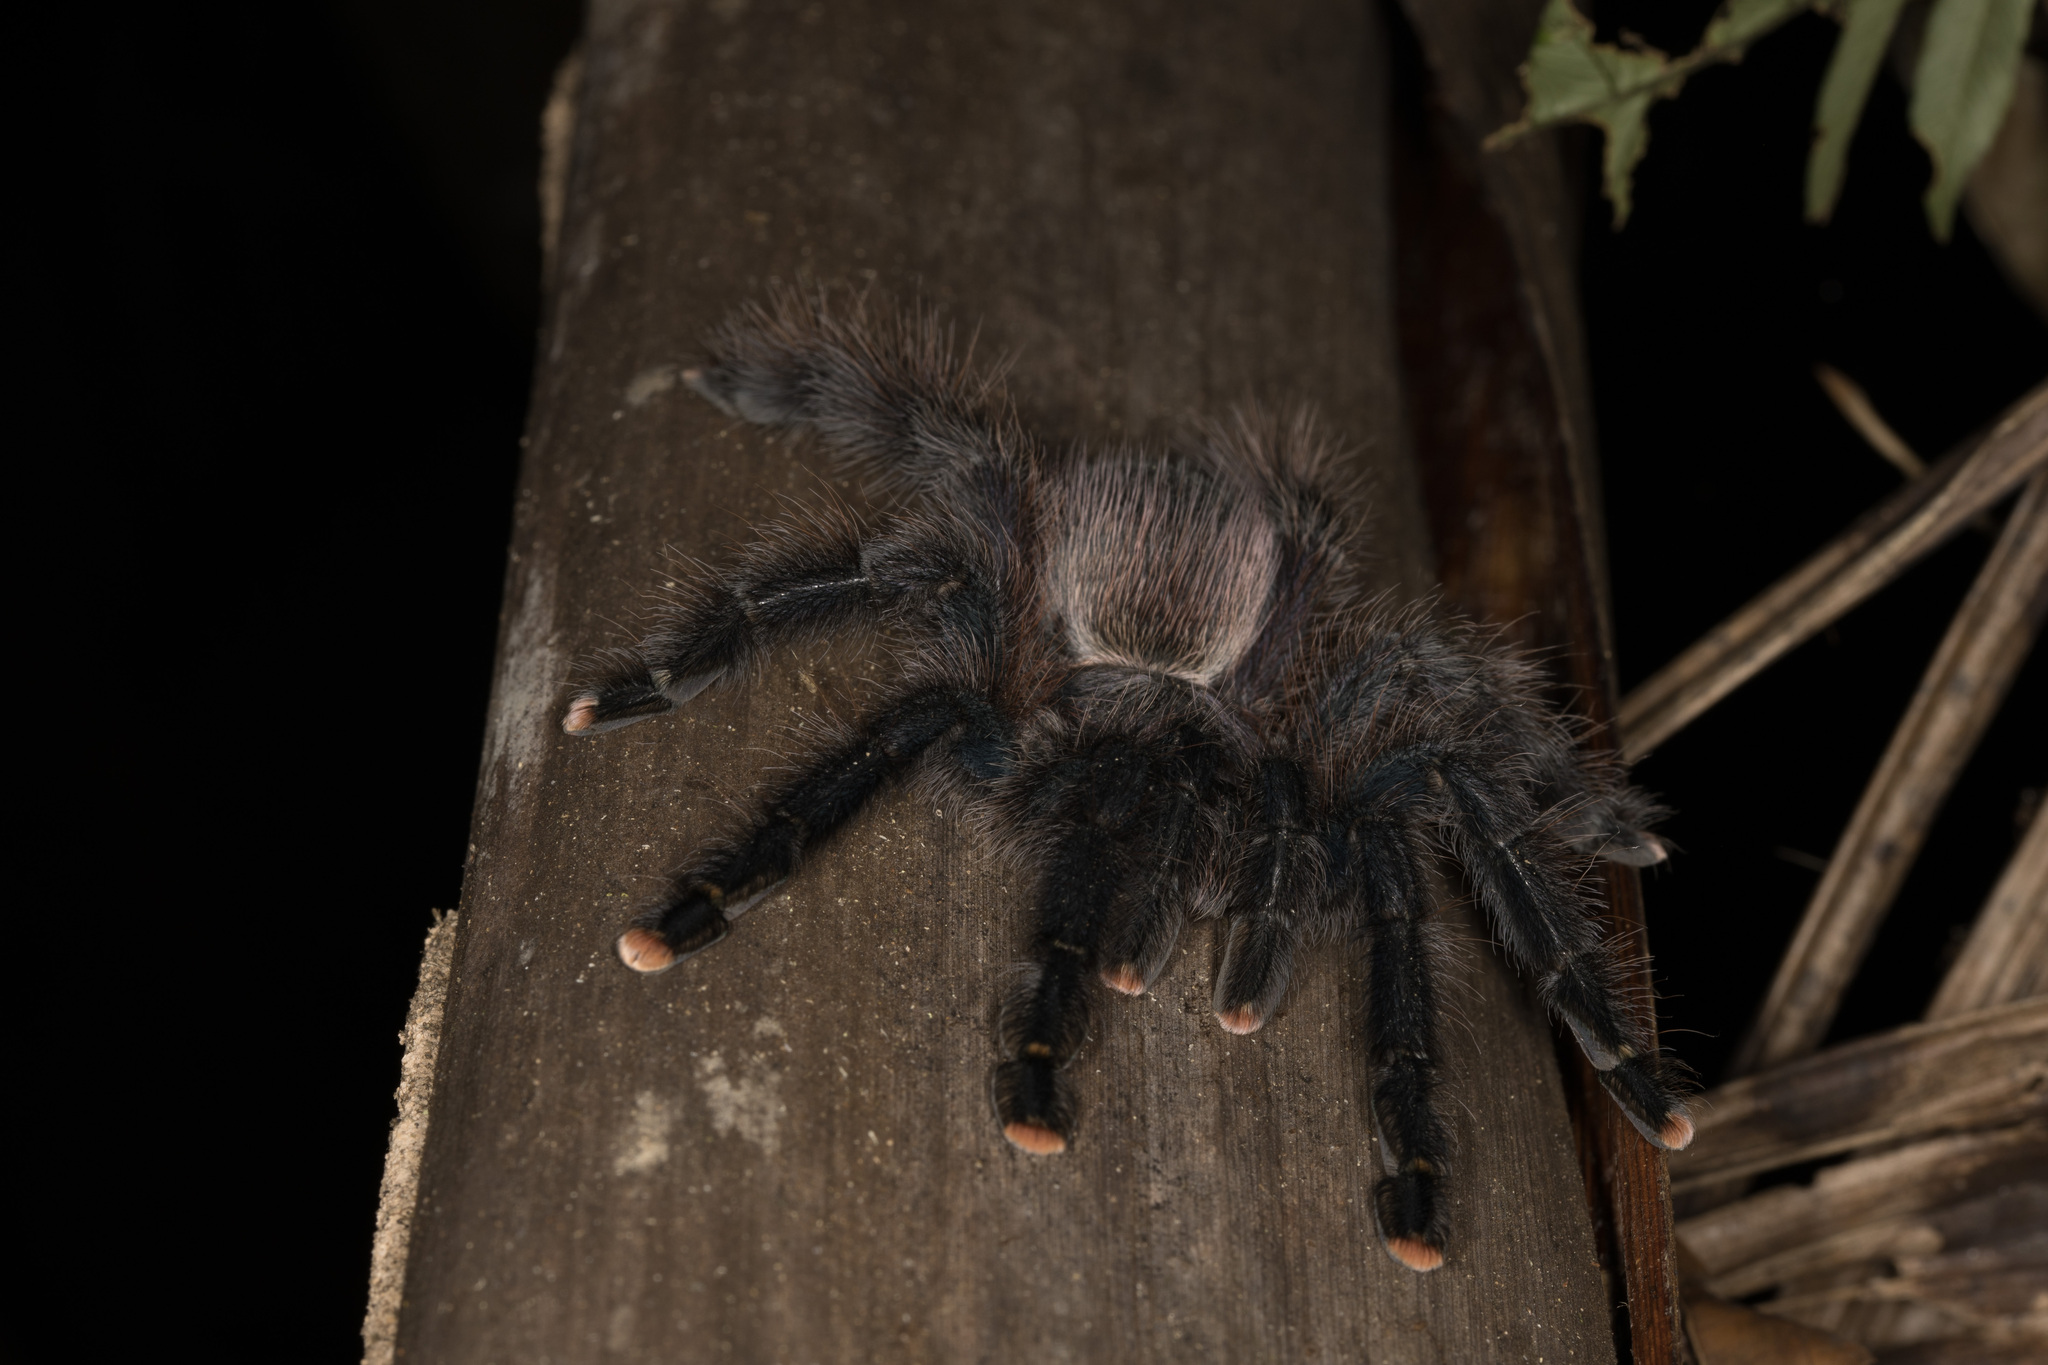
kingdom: Animalia
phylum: Arthropoda
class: Arachnida
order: Araneae
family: Theraphosidae
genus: Avicularia
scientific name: Avicularia avicularia
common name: Tarantula spiders
